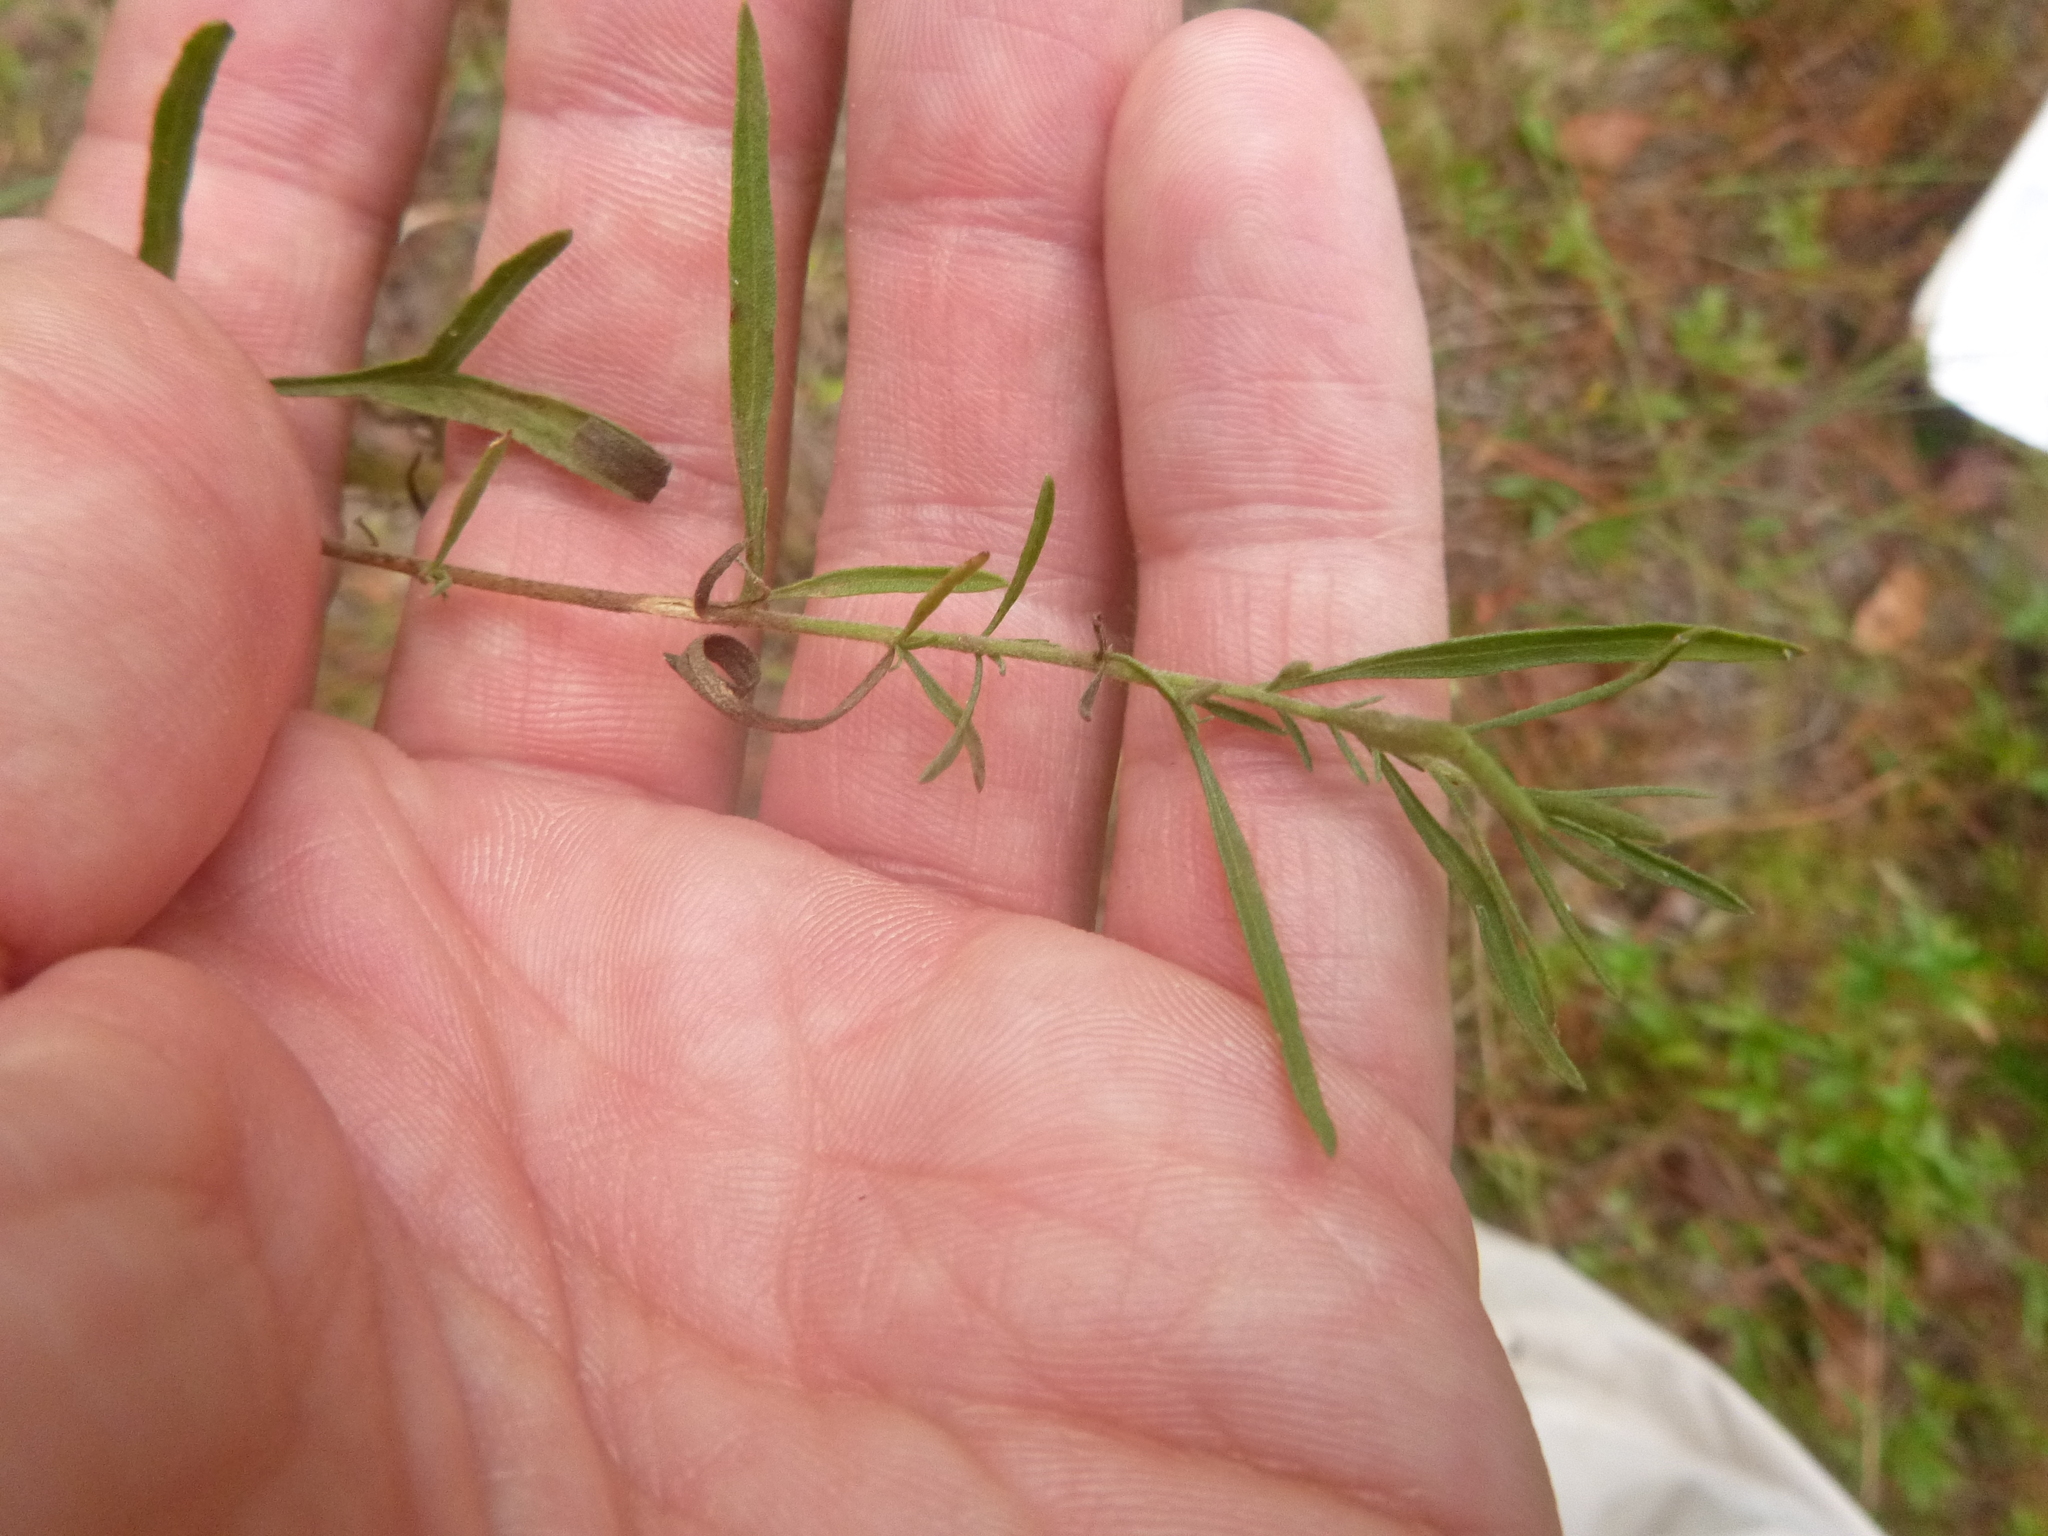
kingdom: Plantae
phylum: Tracheophyta
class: Magnoliopsida
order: Asterales
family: Asteraceae
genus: Eupatorium
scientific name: Eupatorium compositifolium
